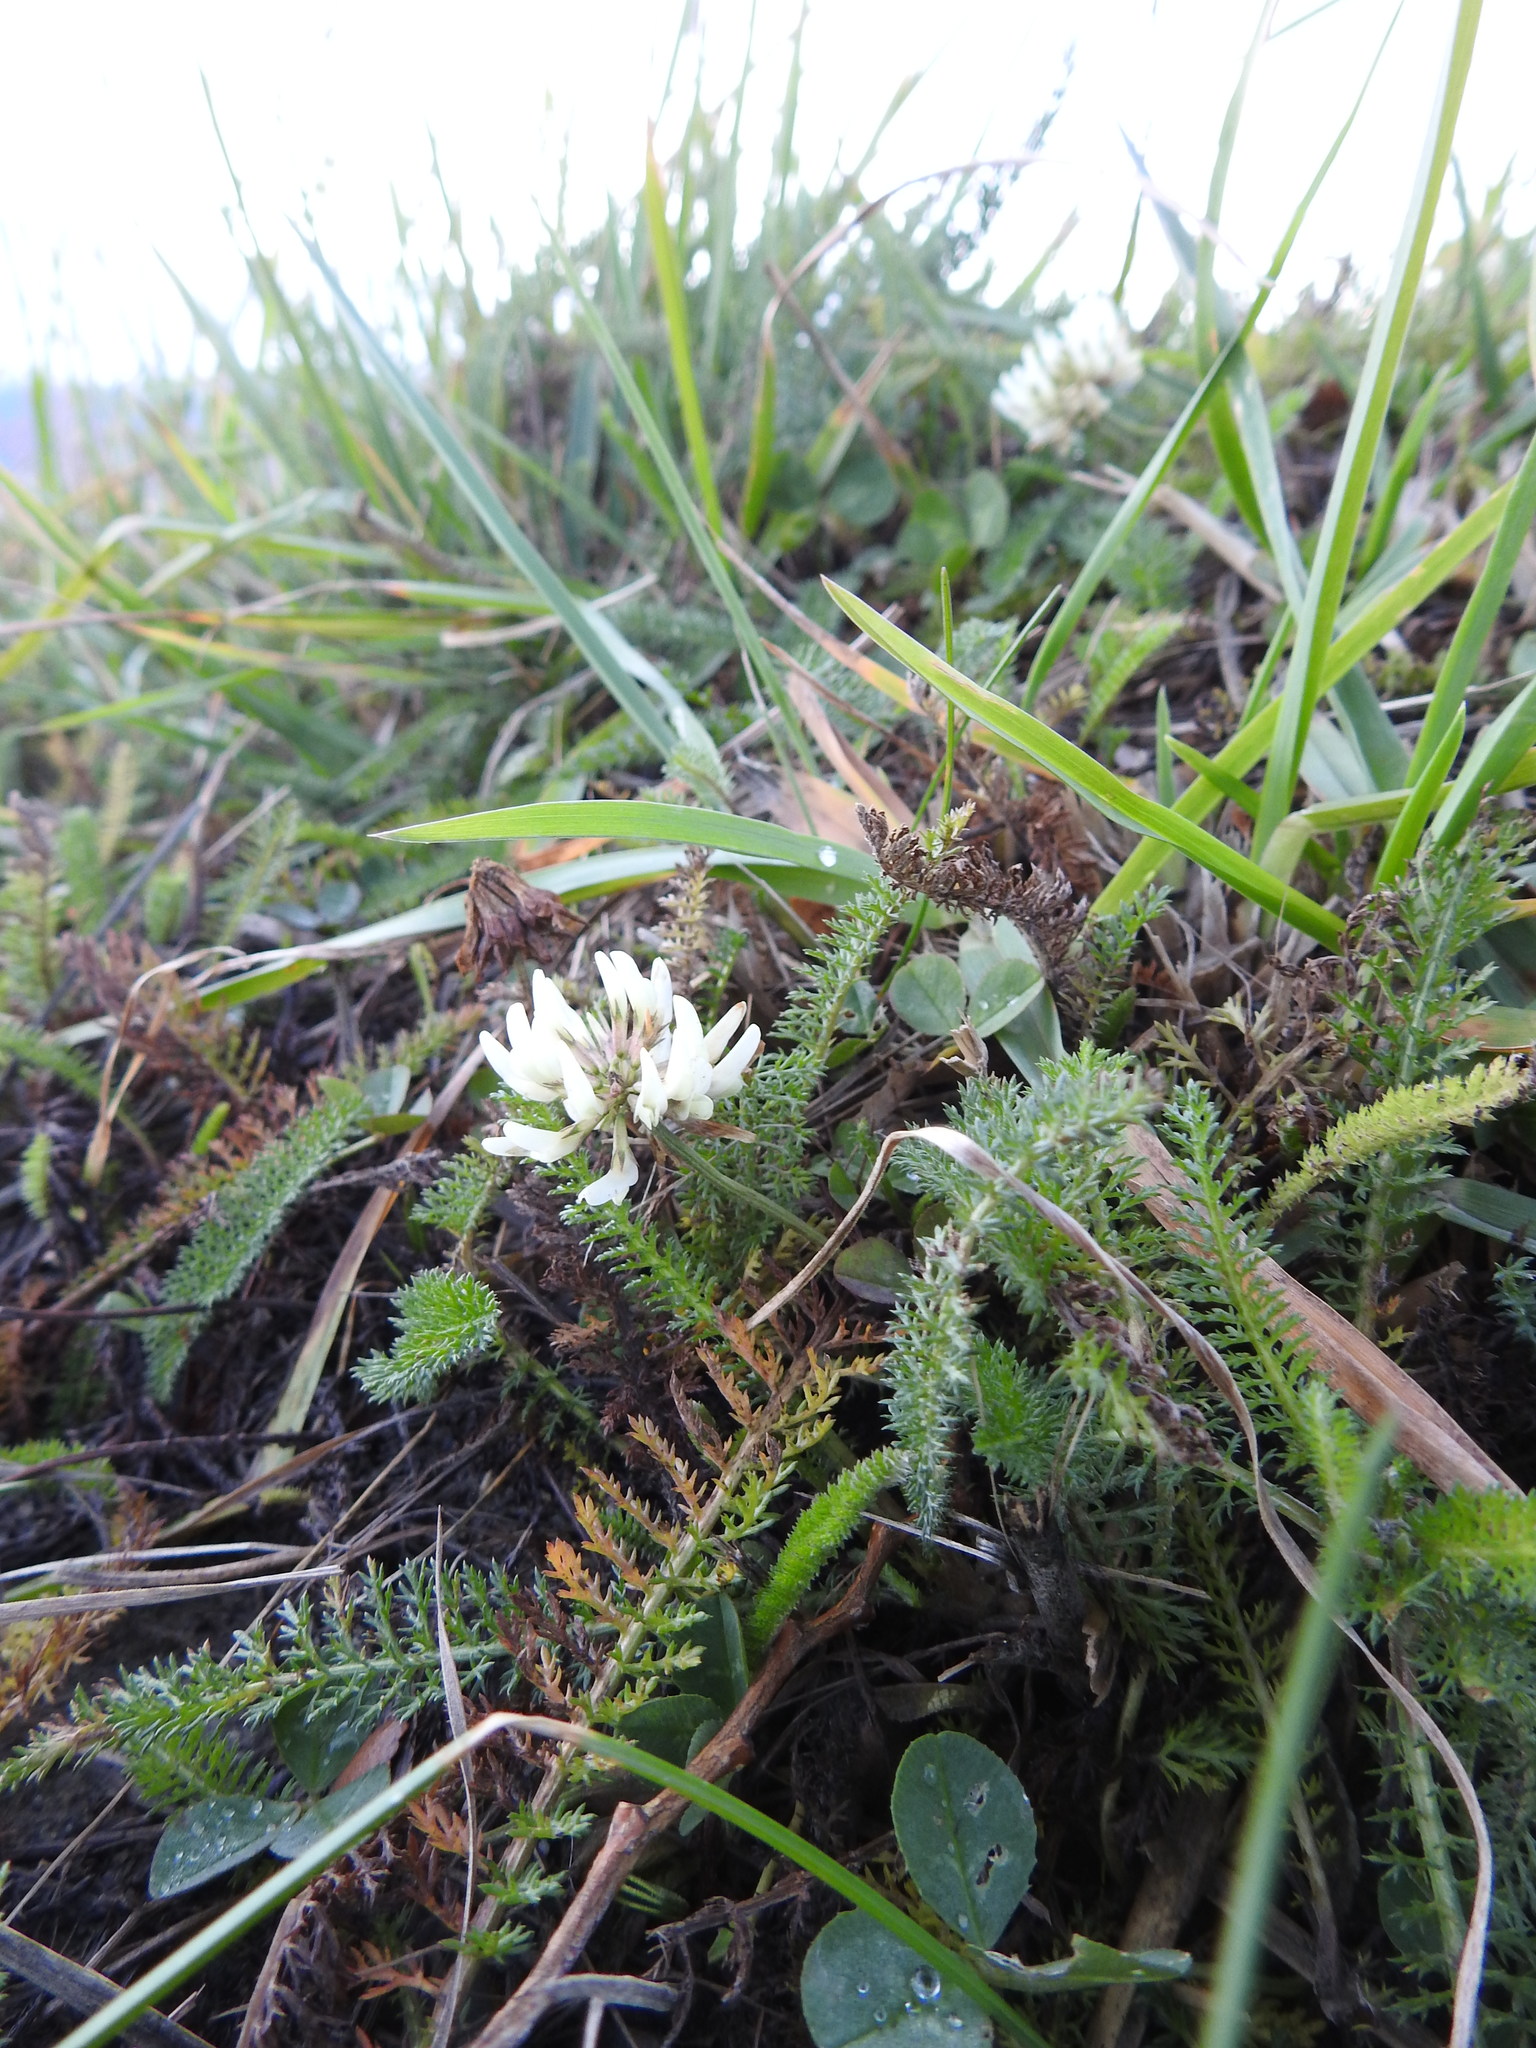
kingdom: Plantae
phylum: Tracheophyta
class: Magnoliopsida
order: Fabales
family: Fabaceae
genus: Trifolium
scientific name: Trifolium repens
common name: White clover
